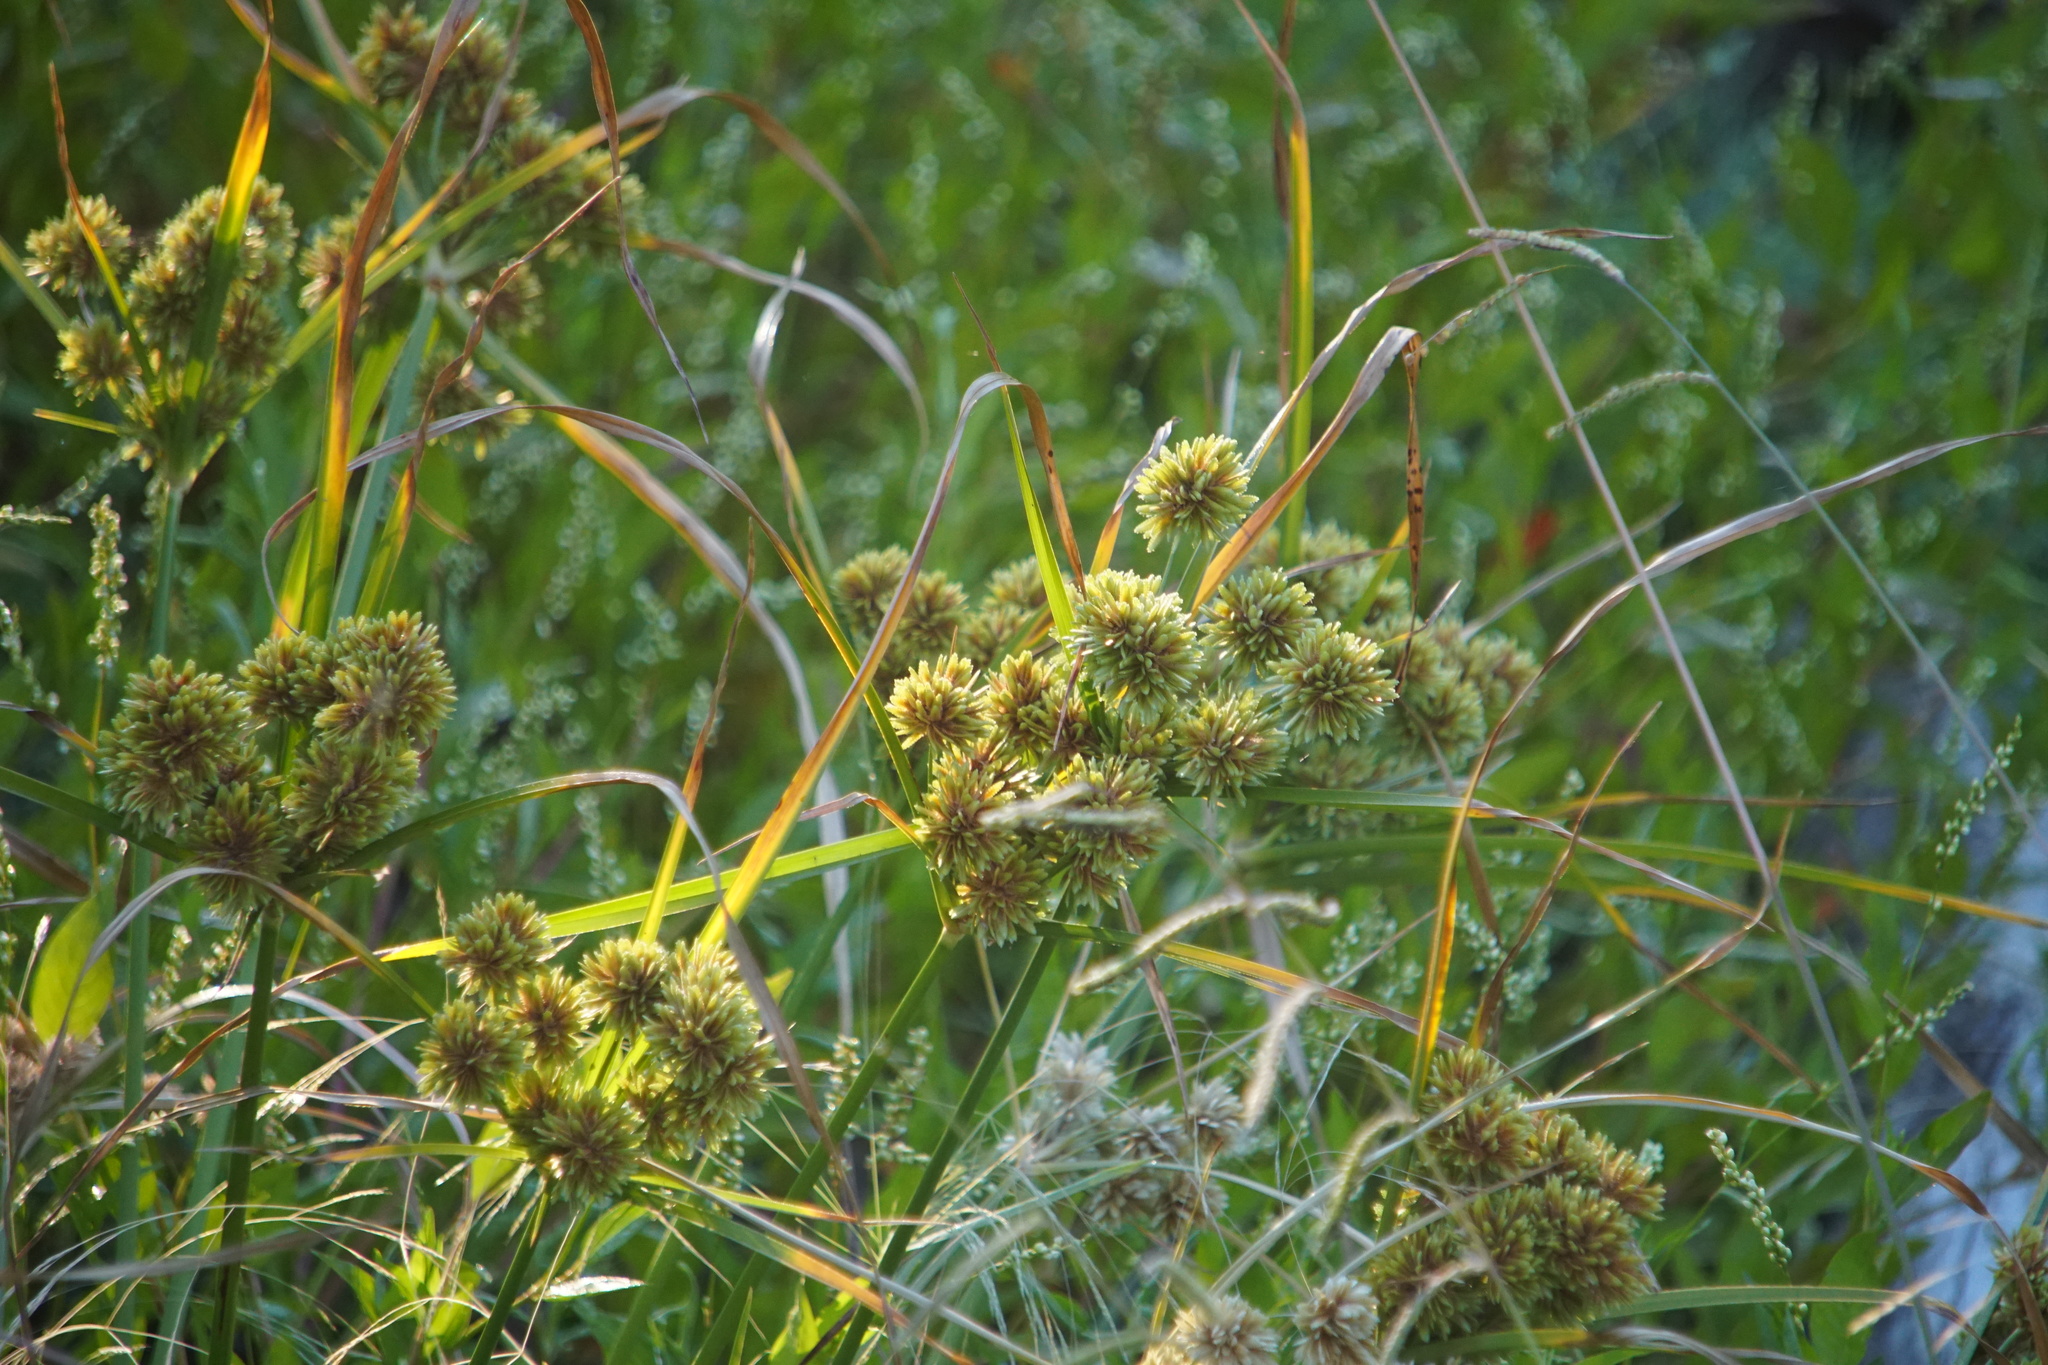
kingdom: Plantae
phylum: Tracheophyta
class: Liliopsida
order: Poales
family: Cyperaceae
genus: Cyperus
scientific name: Cyperus eragrostis
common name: Tall flatsedge
